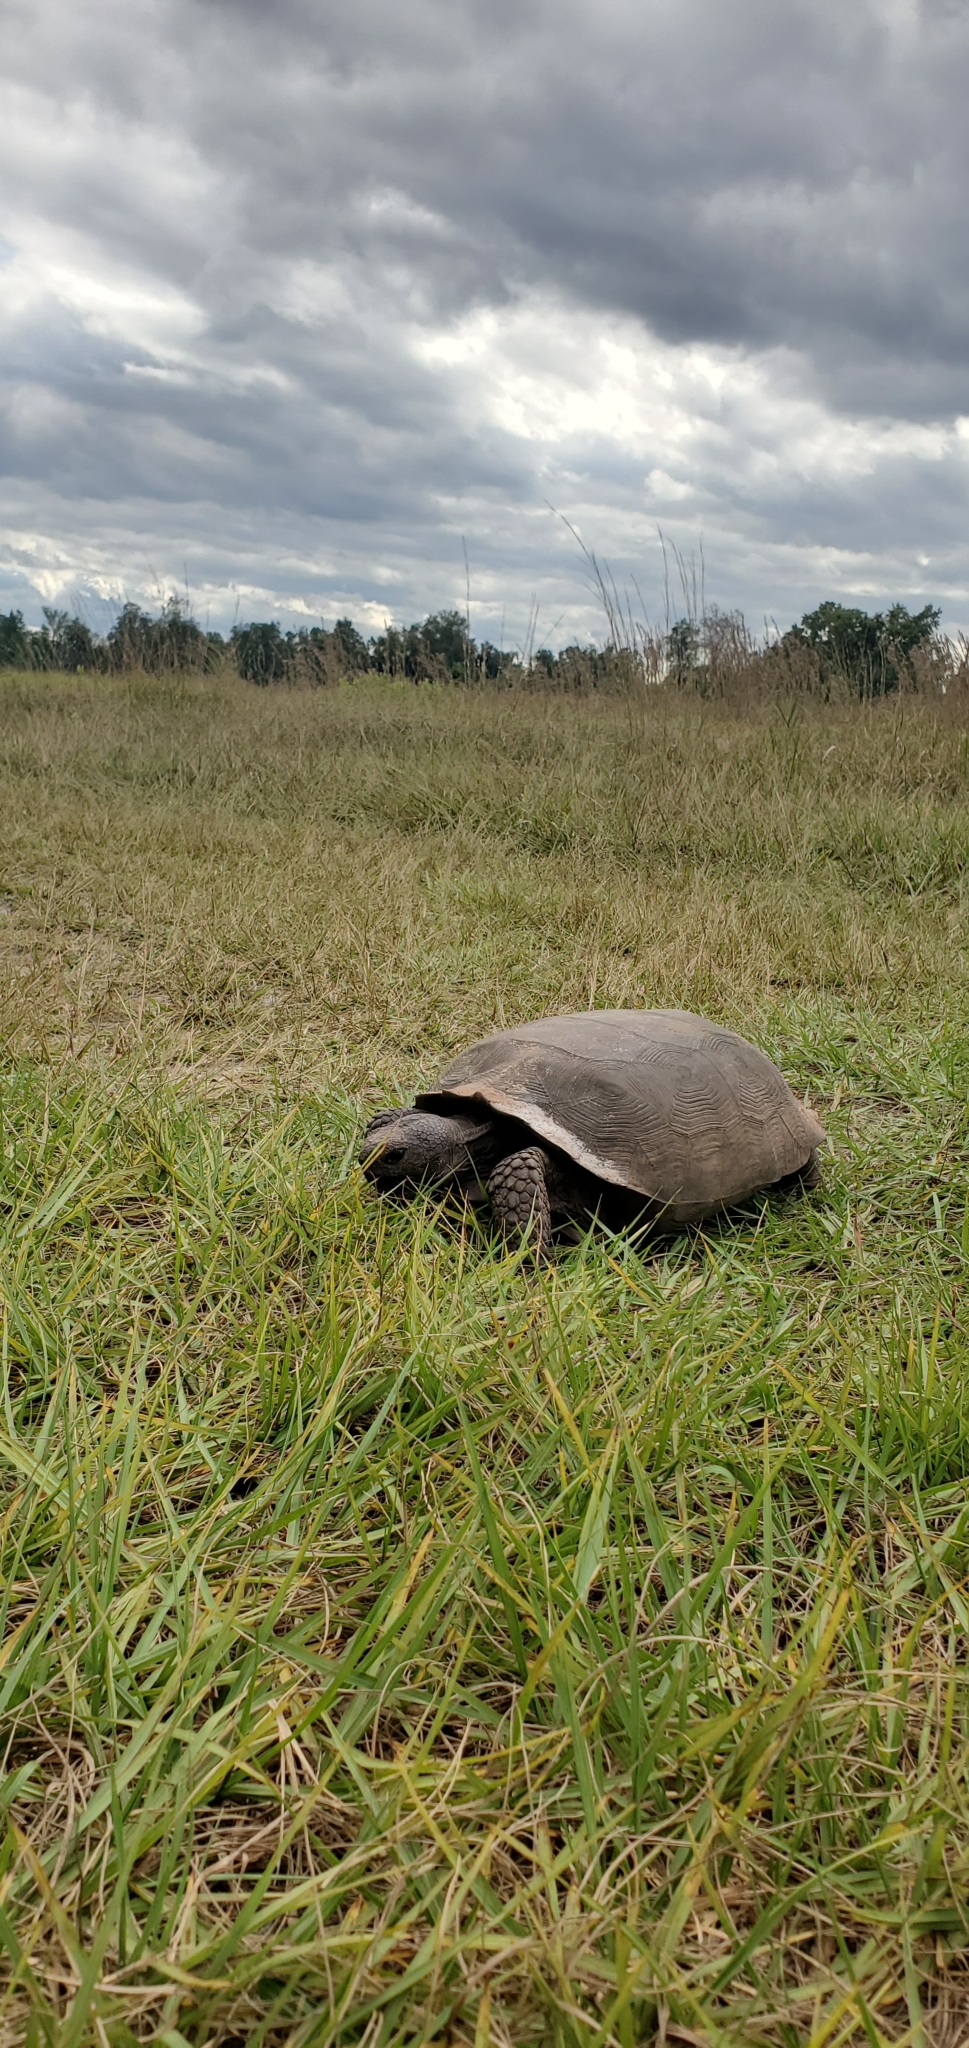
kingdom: Animalia
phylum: Chordata
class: Testudines
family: Testudinidae
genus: Gopherus
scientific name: Gopherus polyphemus
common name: Florida gopher tortoise
